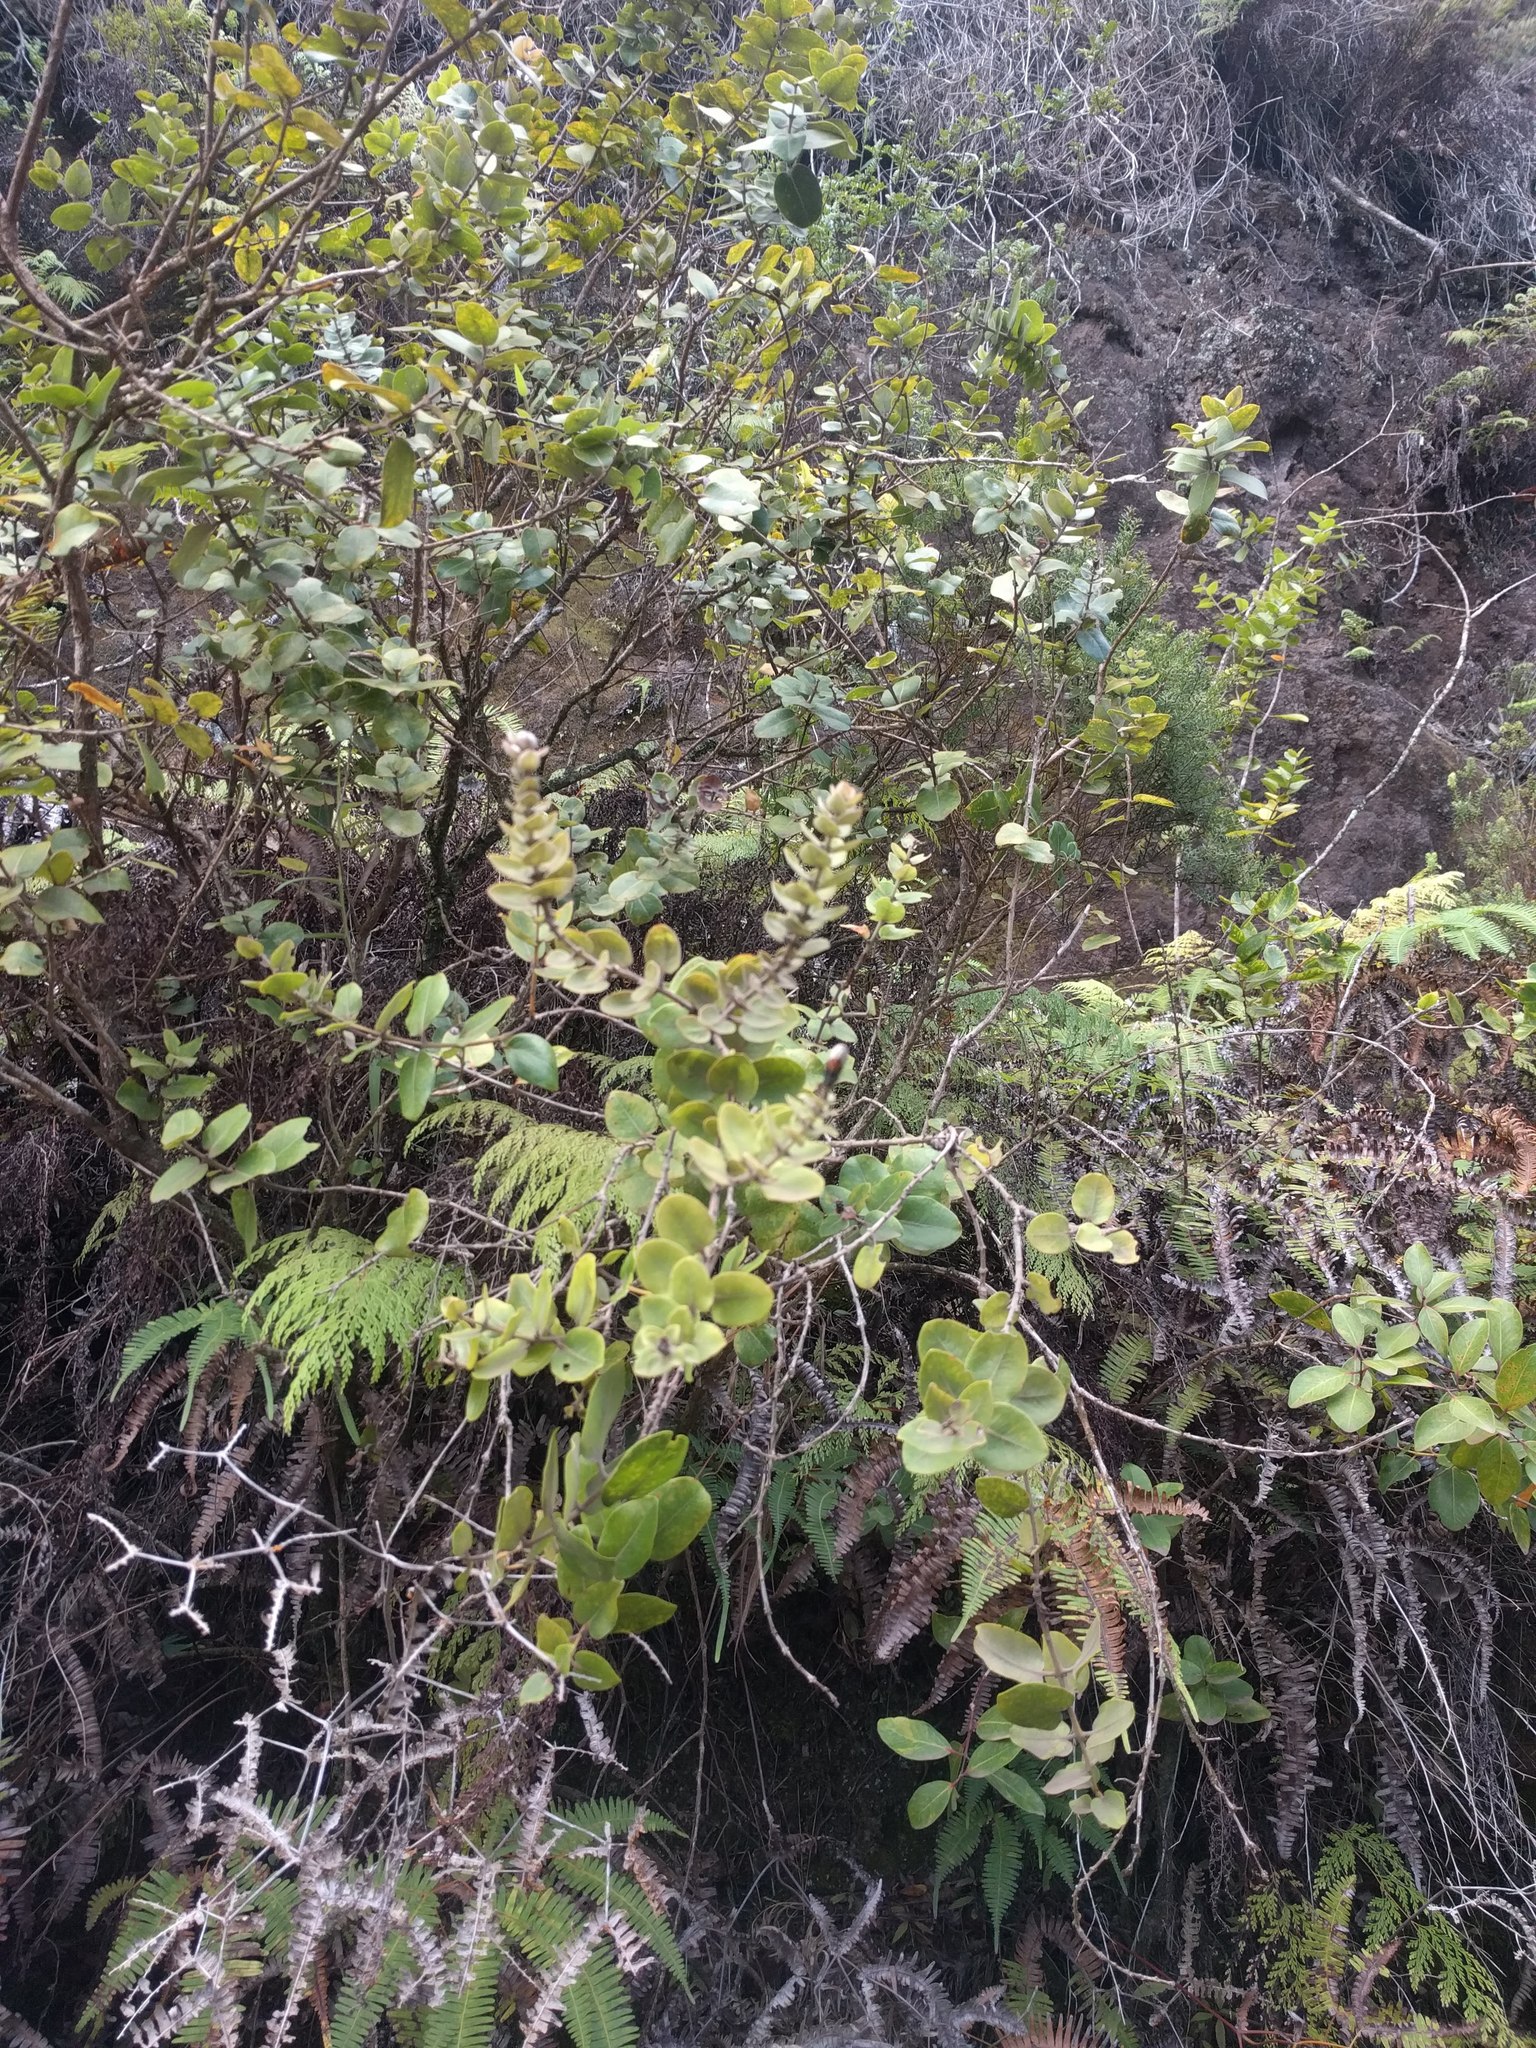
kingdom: Plantae
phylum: Tracheophyta
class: Magnoliopsida
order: Myrtales
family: Myrtaceae
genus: Metrosideros
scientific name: Metrosideros polymorpha
